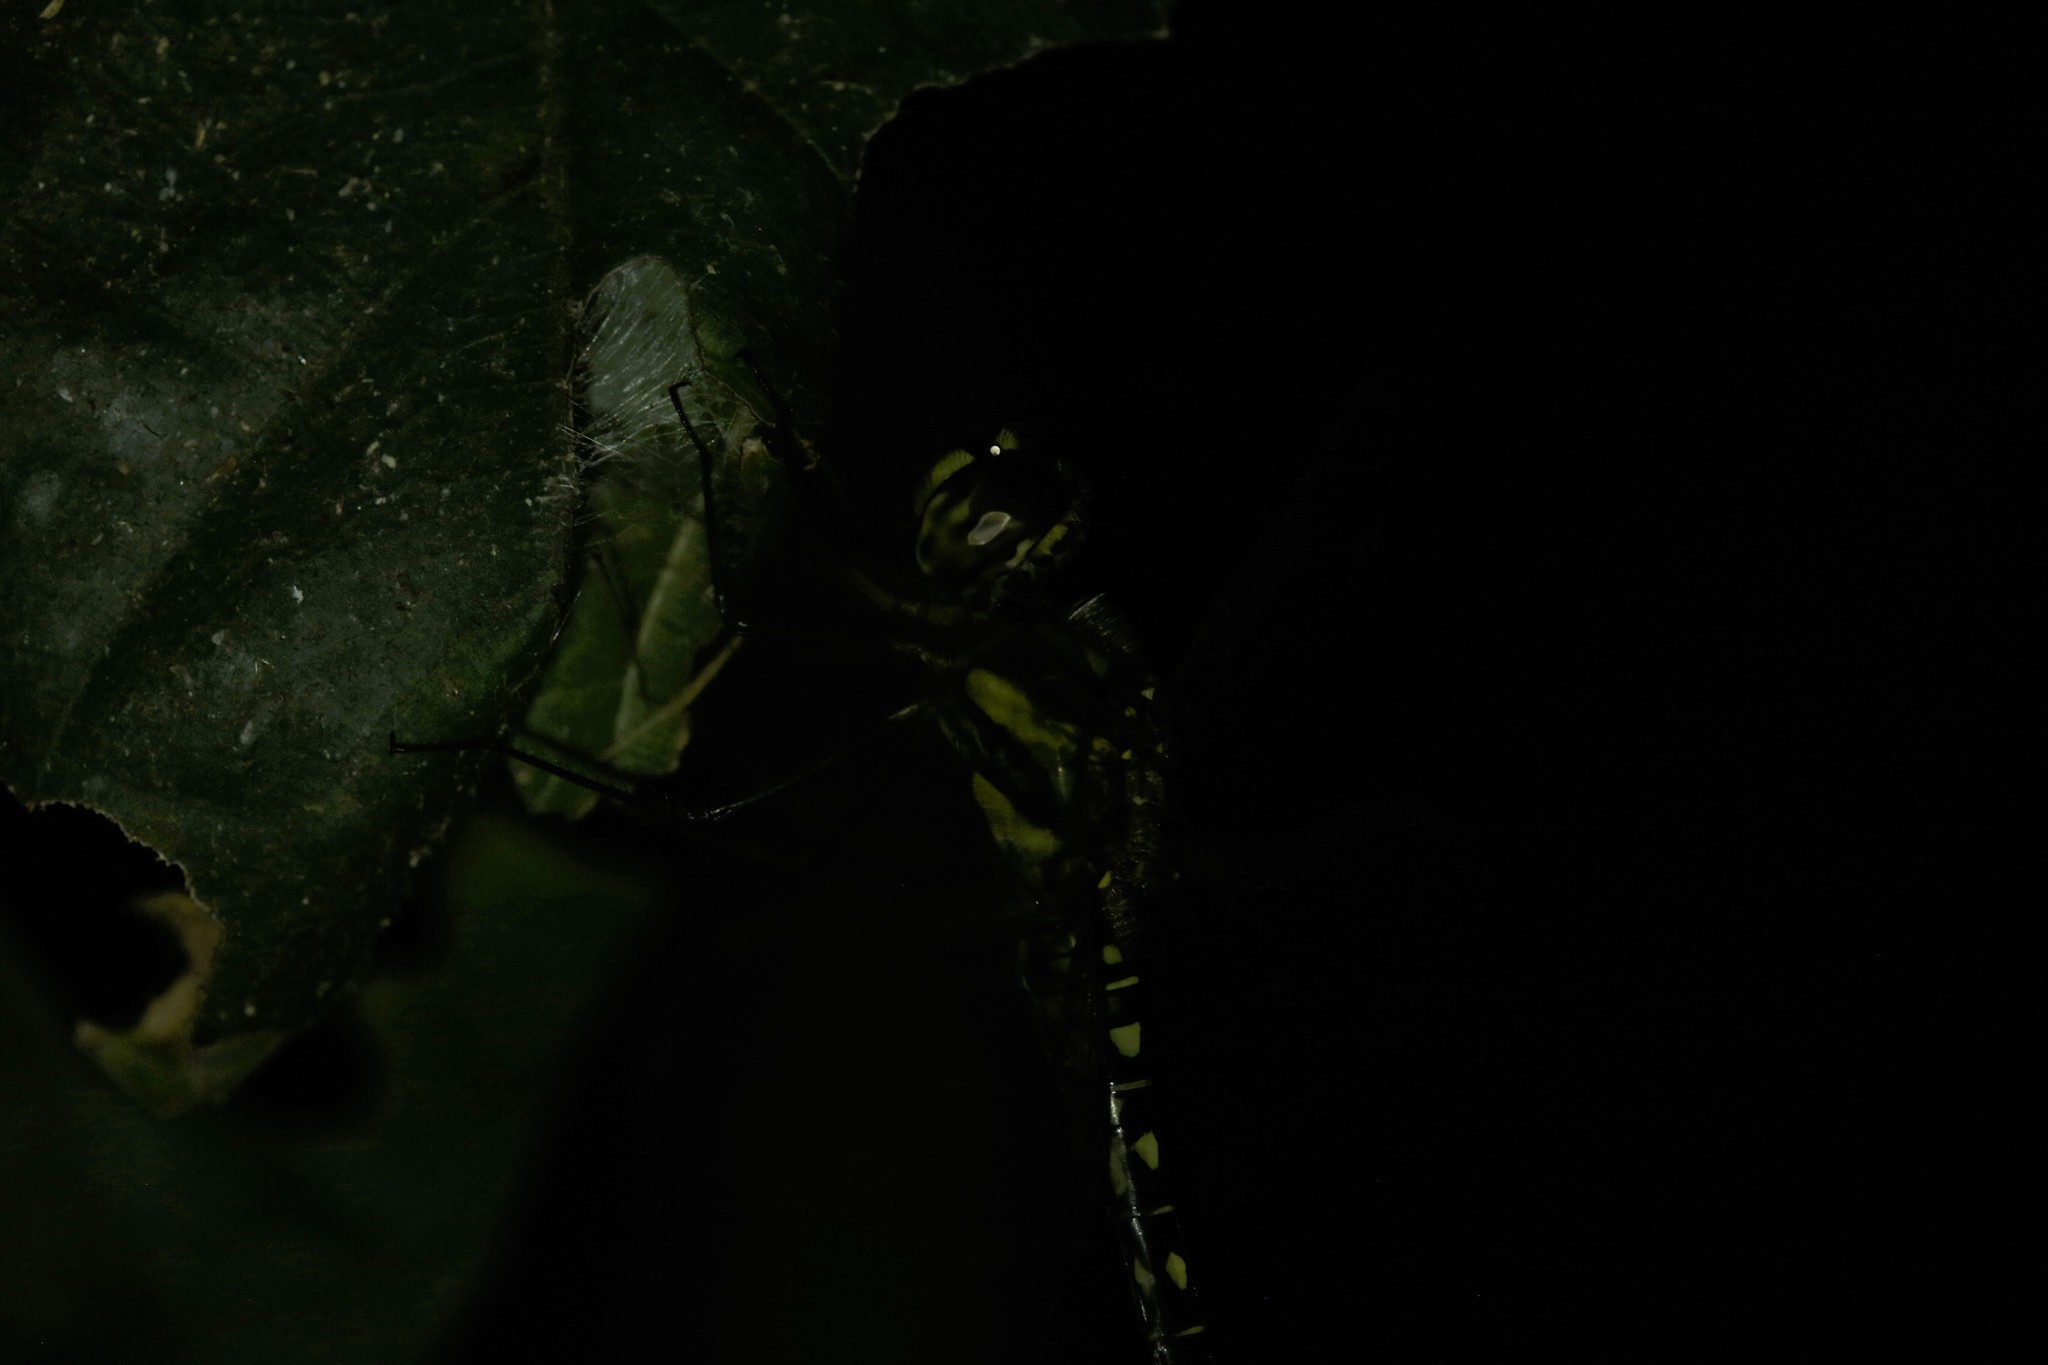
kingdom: Animalia
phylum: Arthropoda
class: Insecta
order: Odonata
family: Libellulidae
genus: Hydrobasileus
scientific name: Hydrobasileus brevistylus
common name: Water prince
